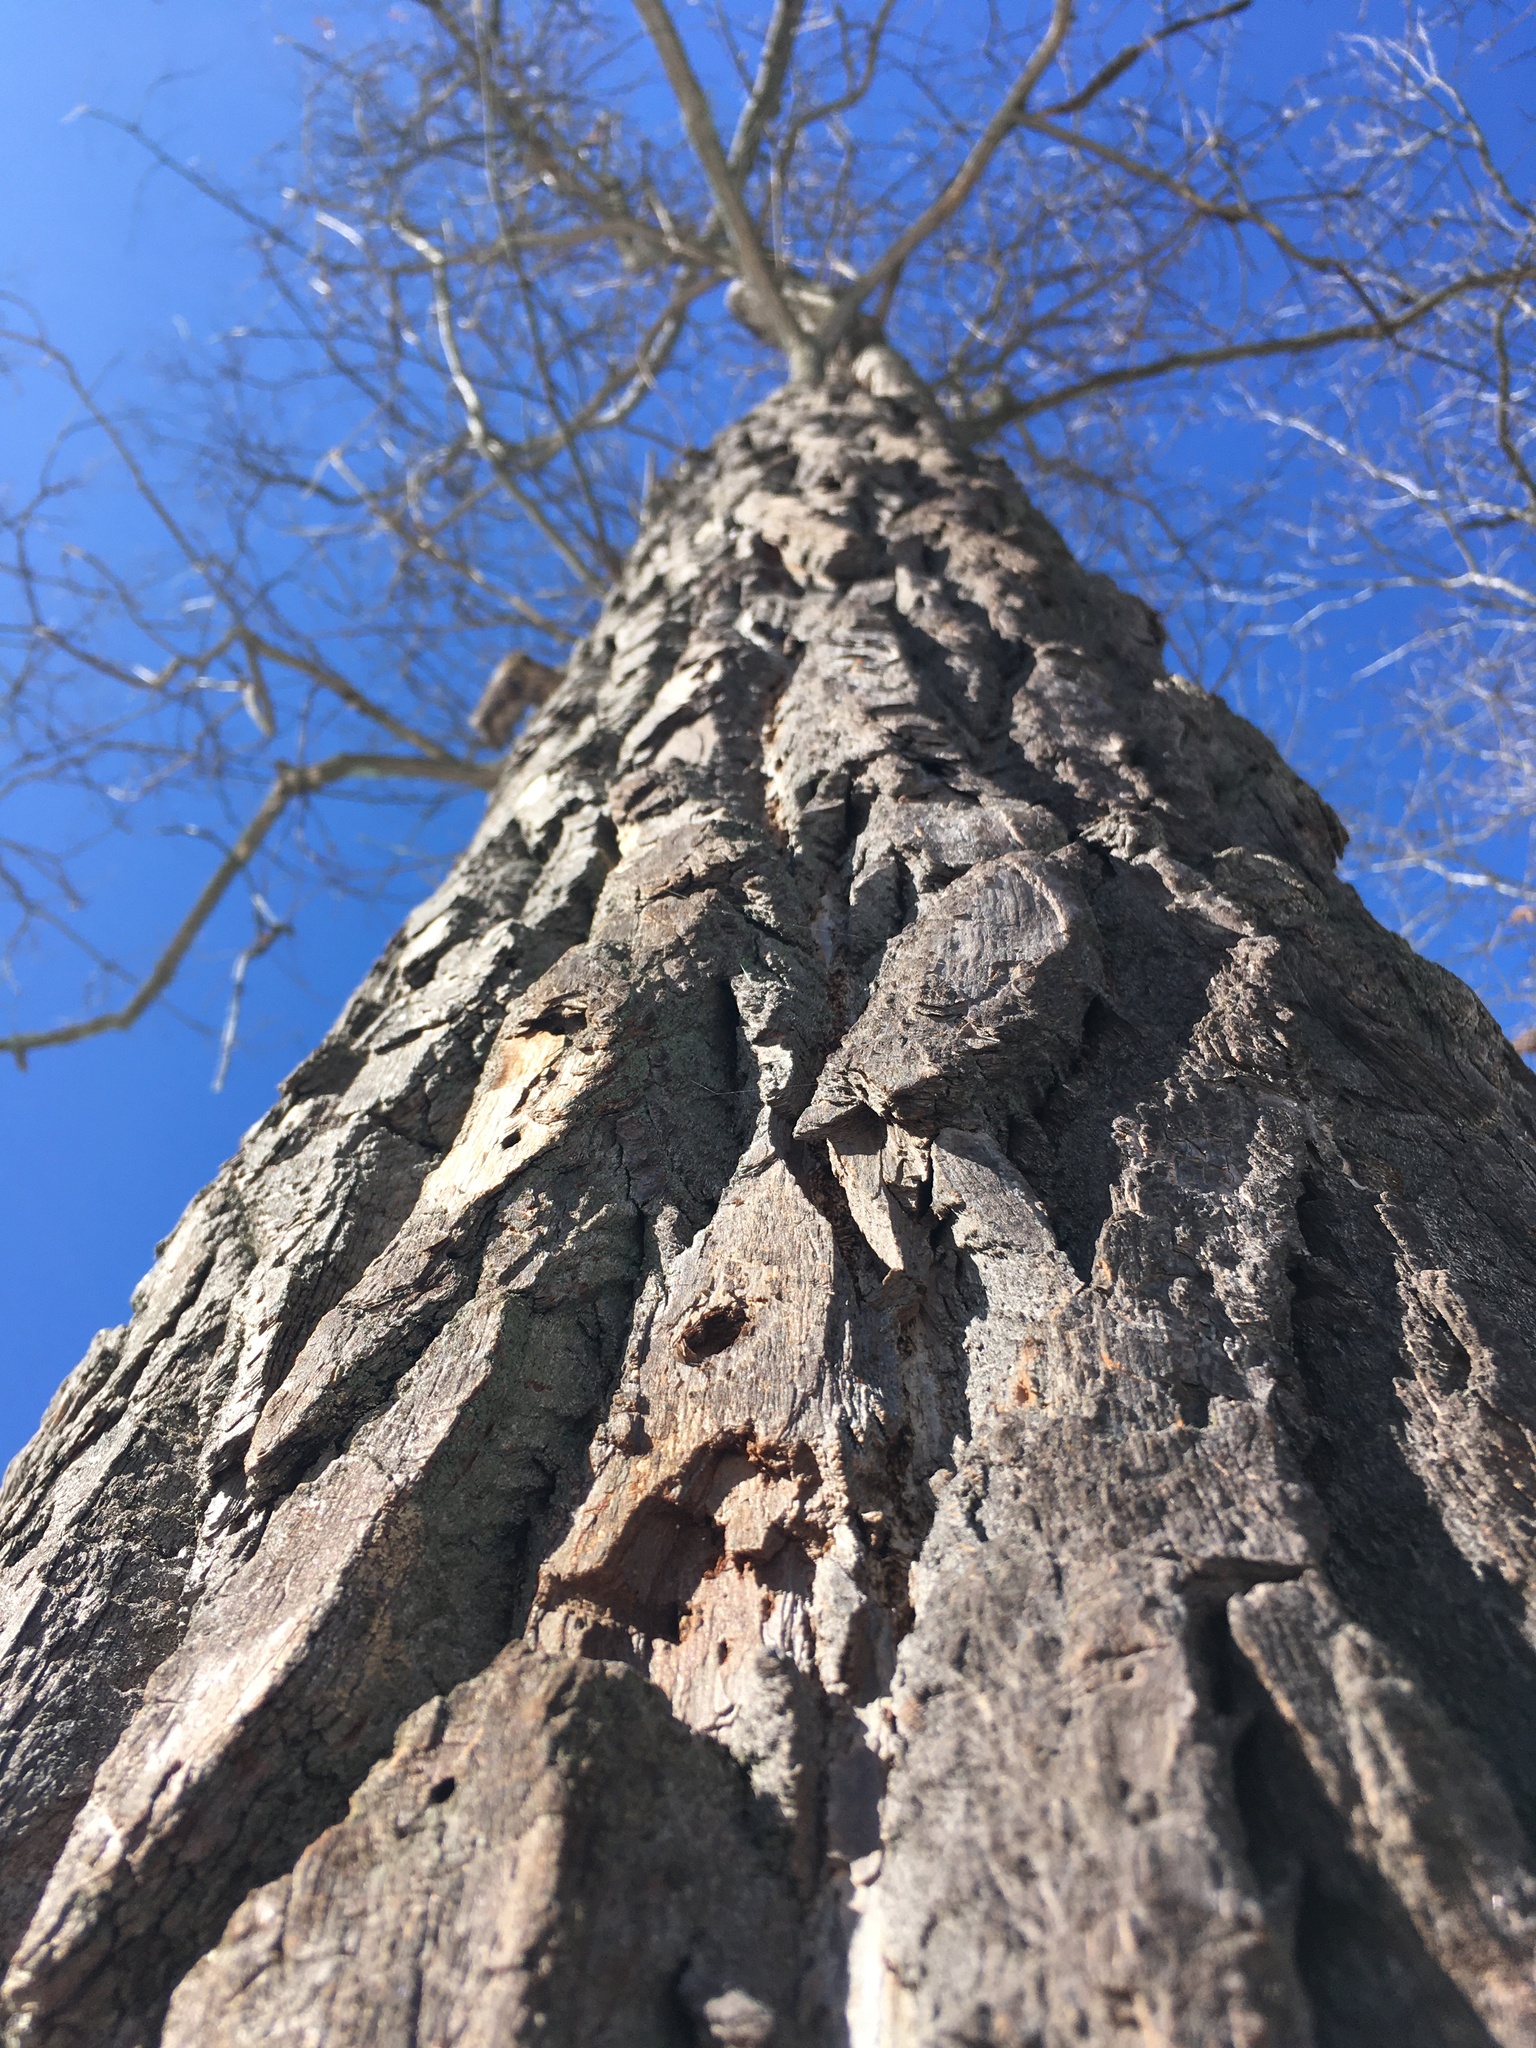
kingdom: Plantae
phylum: Tracheophyta
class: Magnoliopsida
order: Laurales
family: Lauraceae
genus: Sassafras
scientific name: Sassafras albidum
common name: Sassafras
